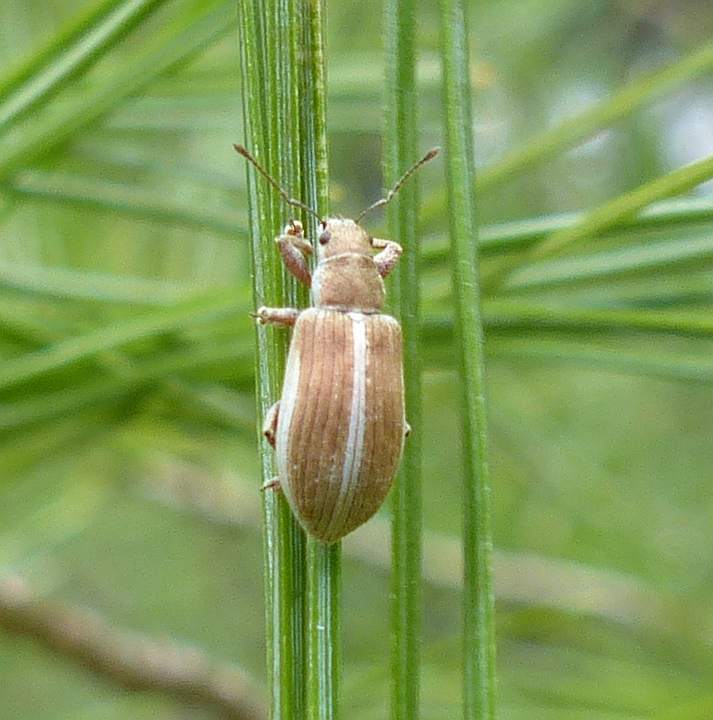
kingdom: Animalia
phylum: Arthropoda
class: Insecta
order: Coleoptera
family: Curculionidae
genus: Pachyrhinus
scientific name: Pachyrhinus elegans
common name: Weevil
